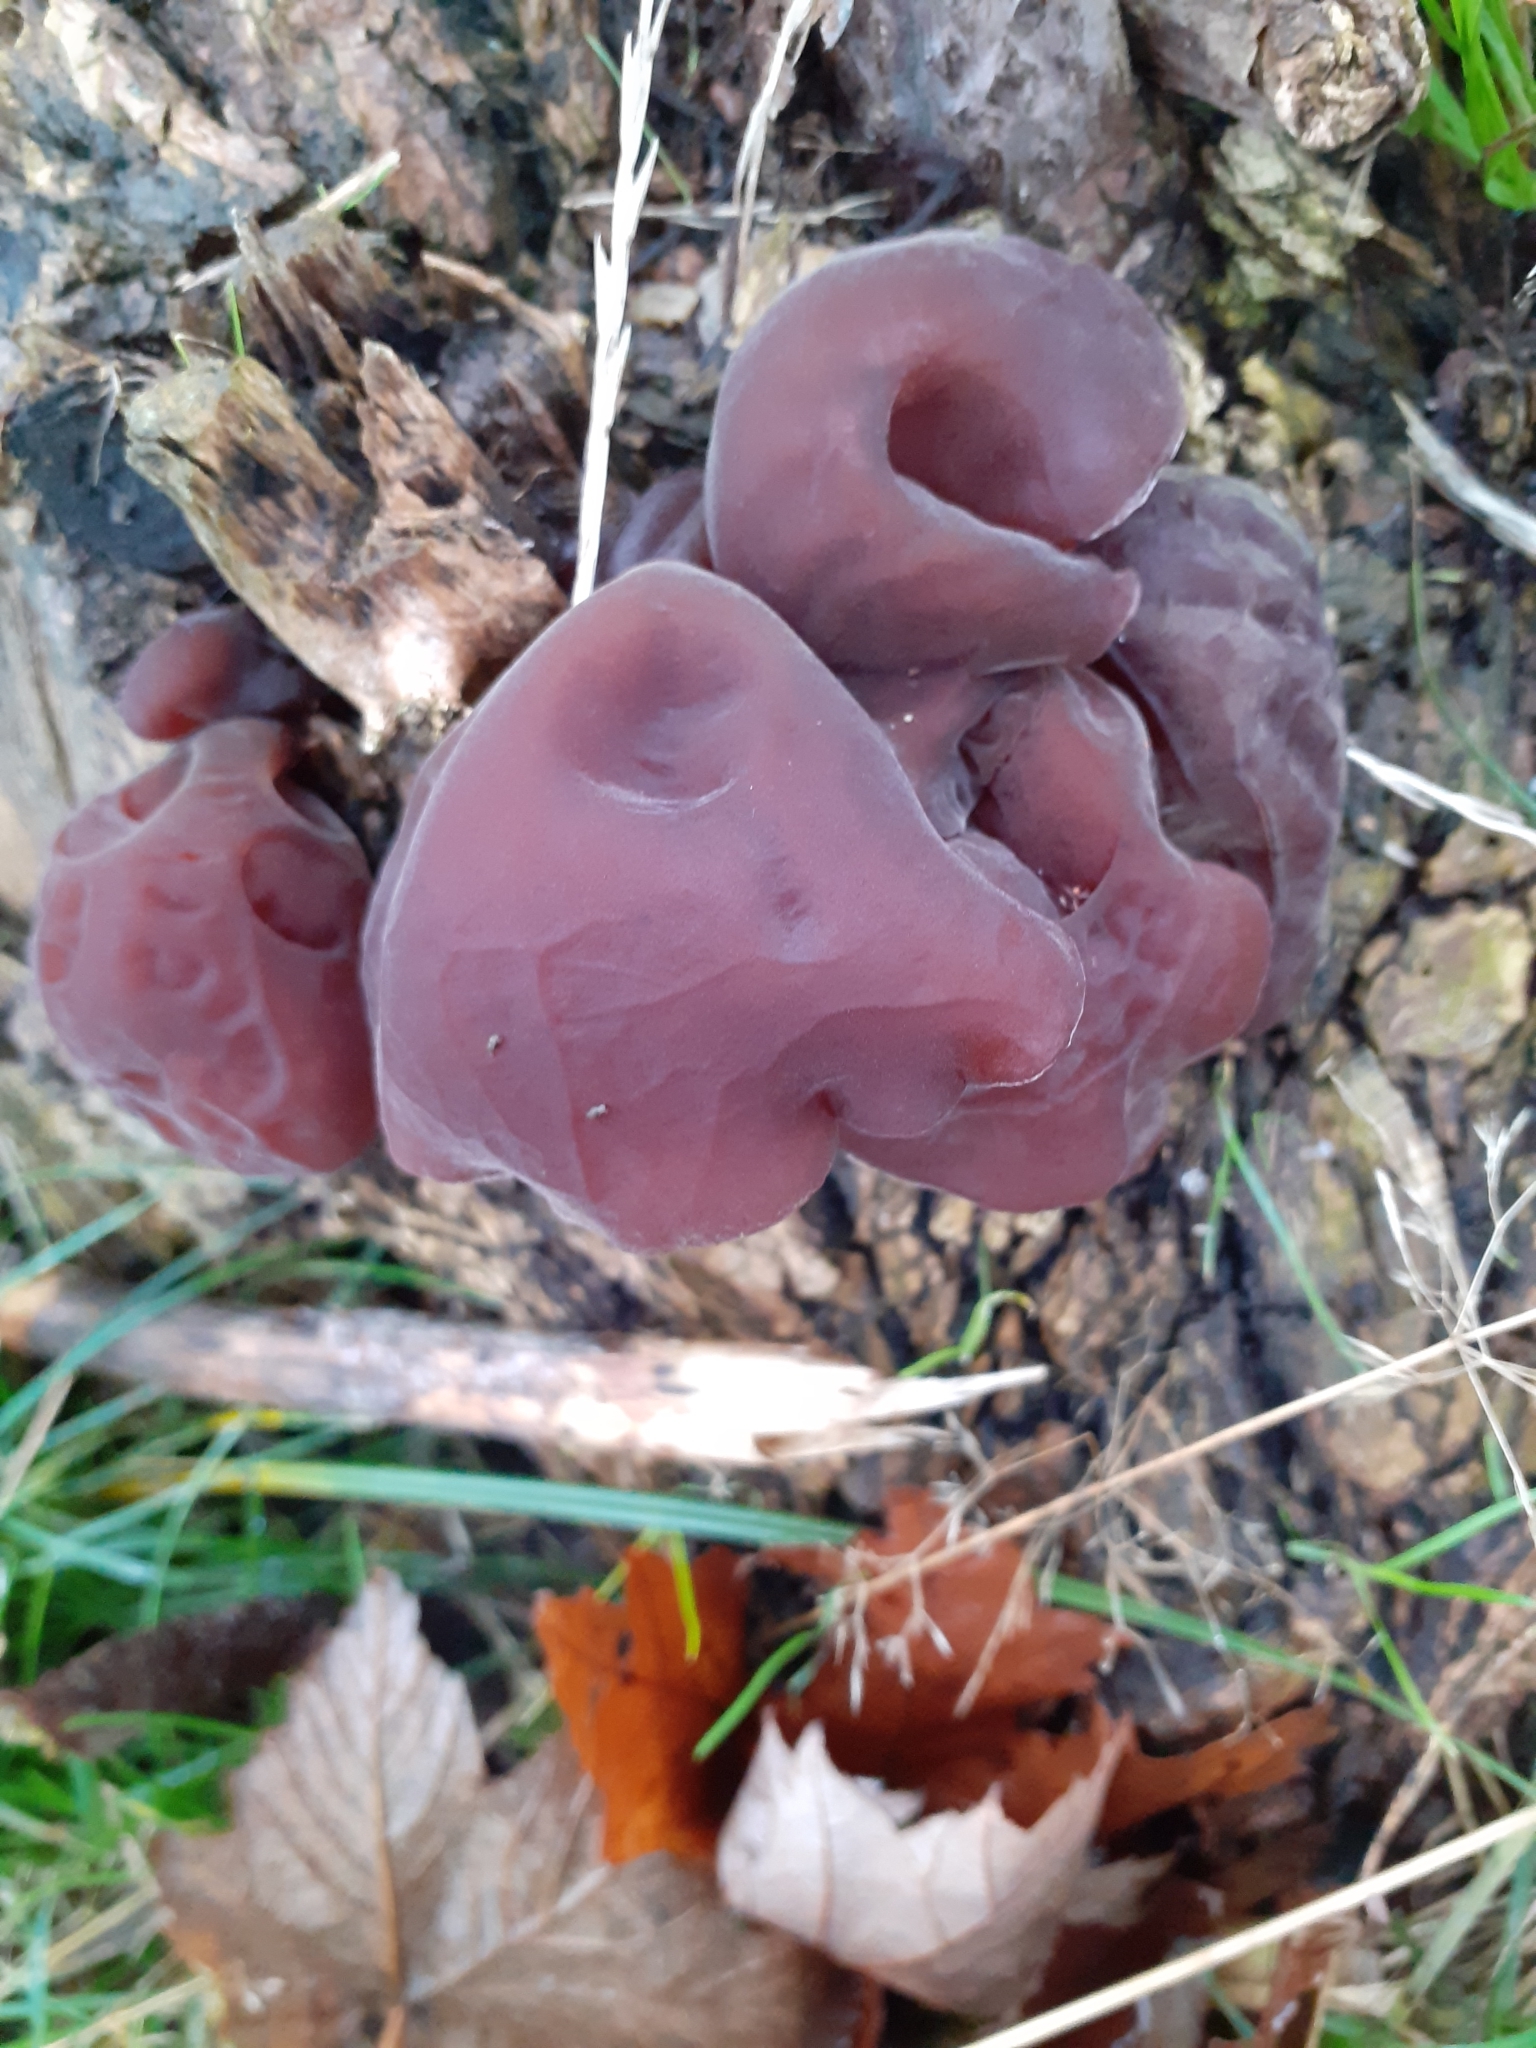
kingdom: Fungi
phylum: Basidiomycota
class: Agaricomycetes
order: Auriculariales
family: Auriculariaceae
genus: Auricularia
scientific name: Auricularia auricula-judae
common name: Jelly ear
